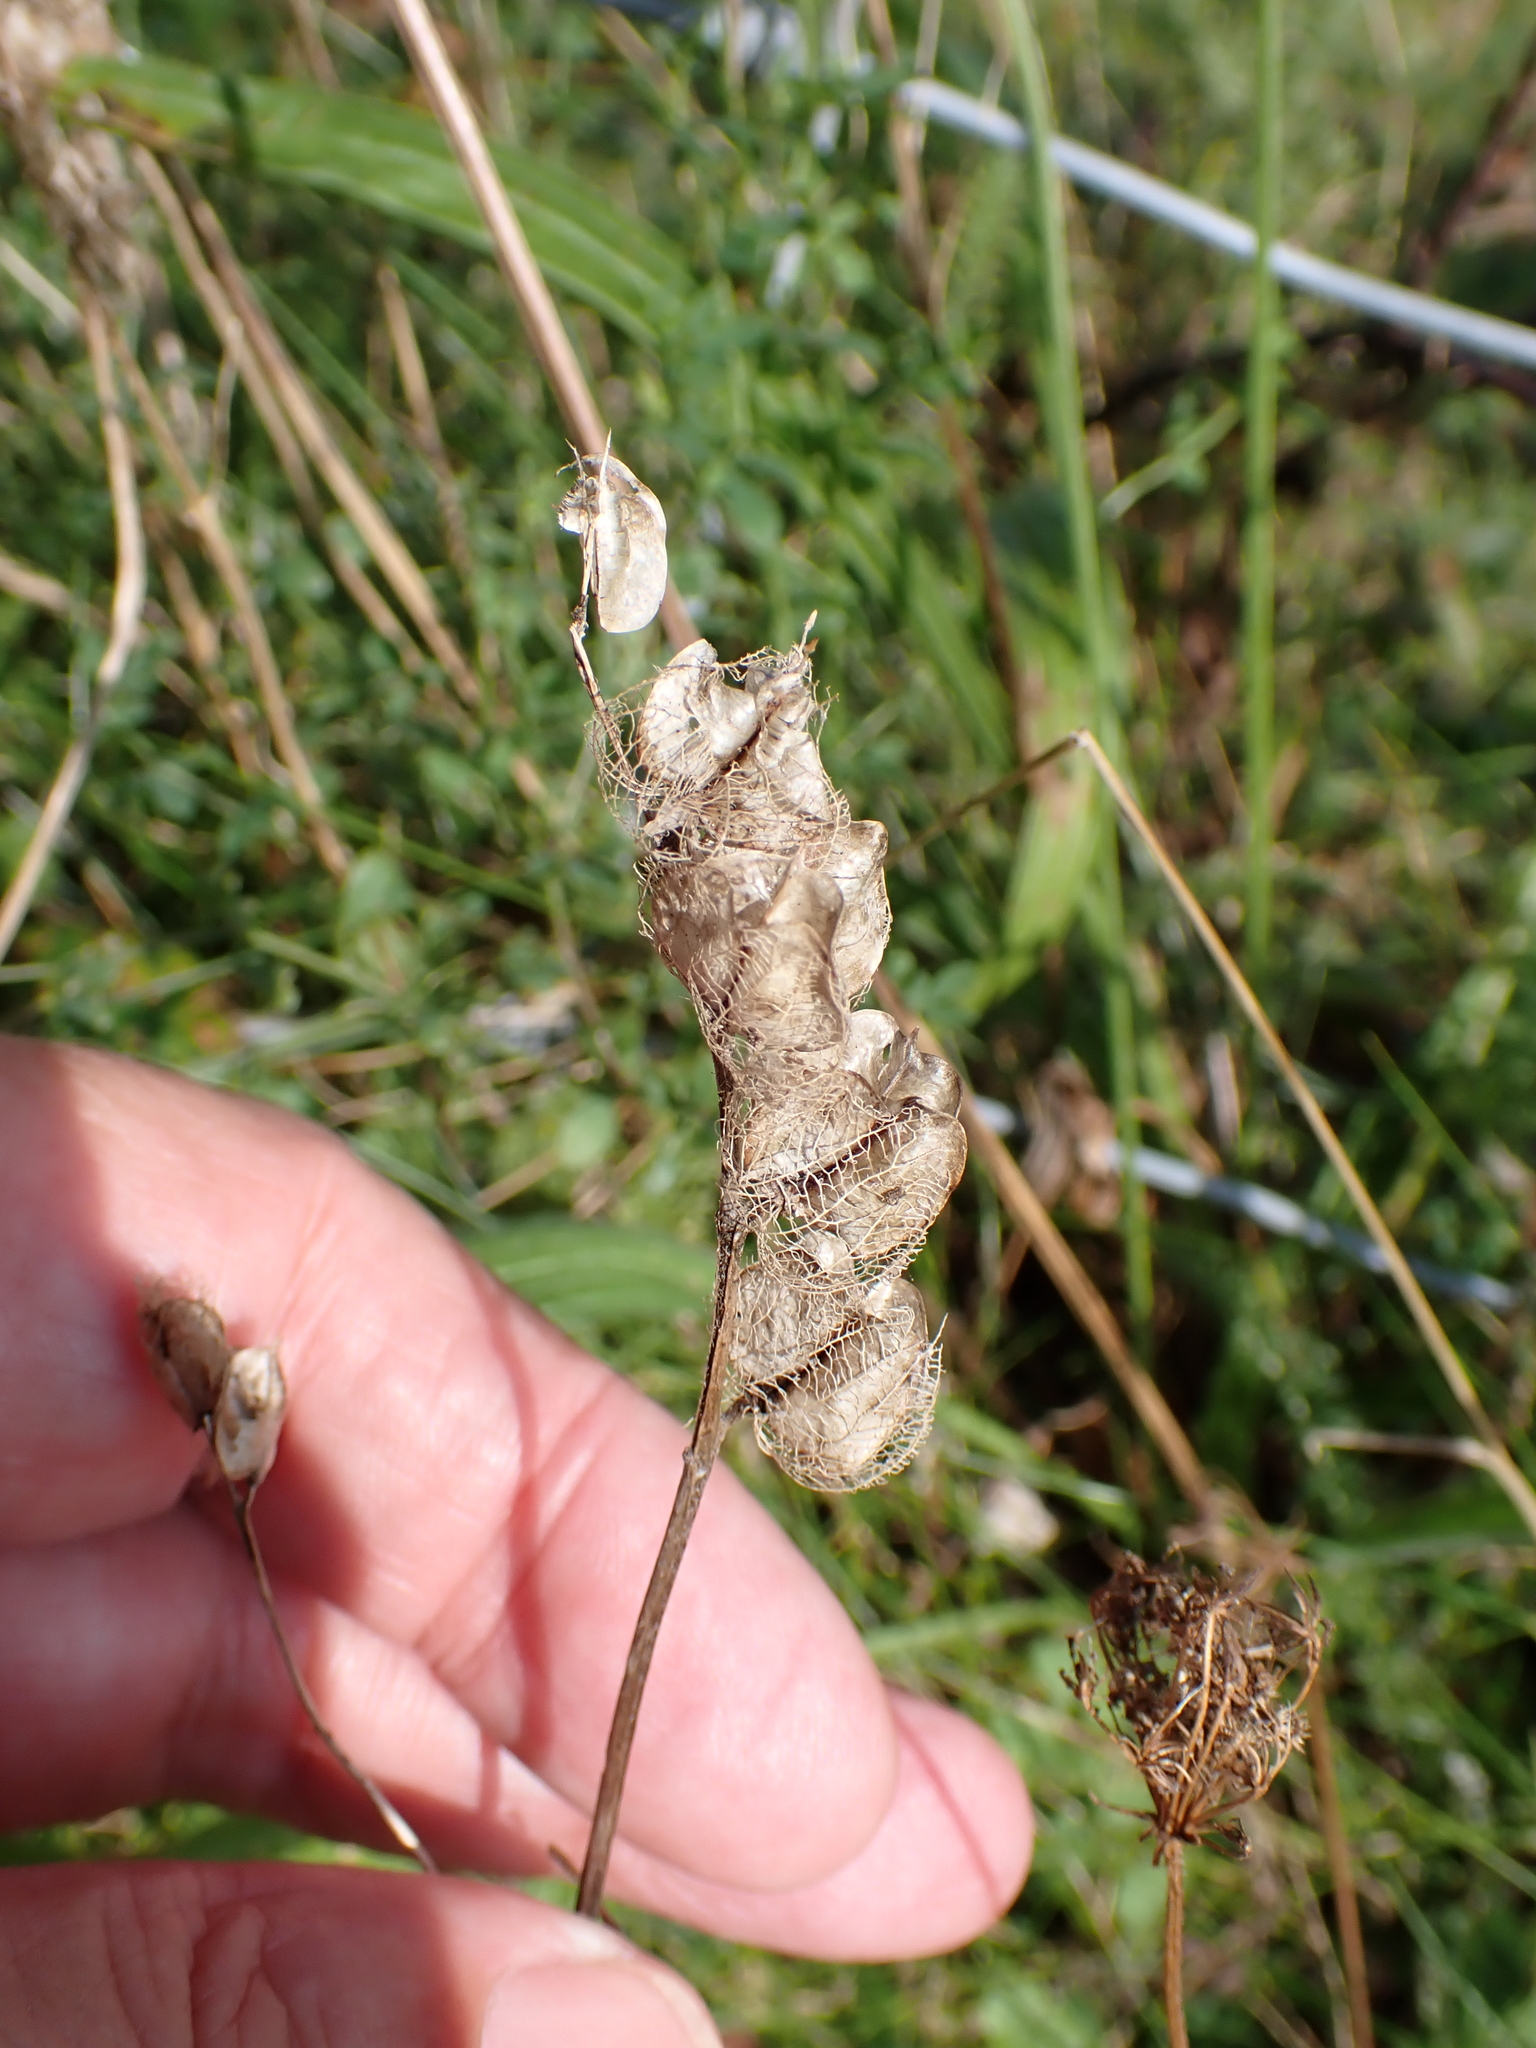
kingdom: Plantae
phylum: Tracheophyta
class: Magnoliopsida
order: Lamiales
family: Orobanchaceae
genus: Rhinanthus
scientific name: Rhinanthus minor
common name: Yellow-rattle
